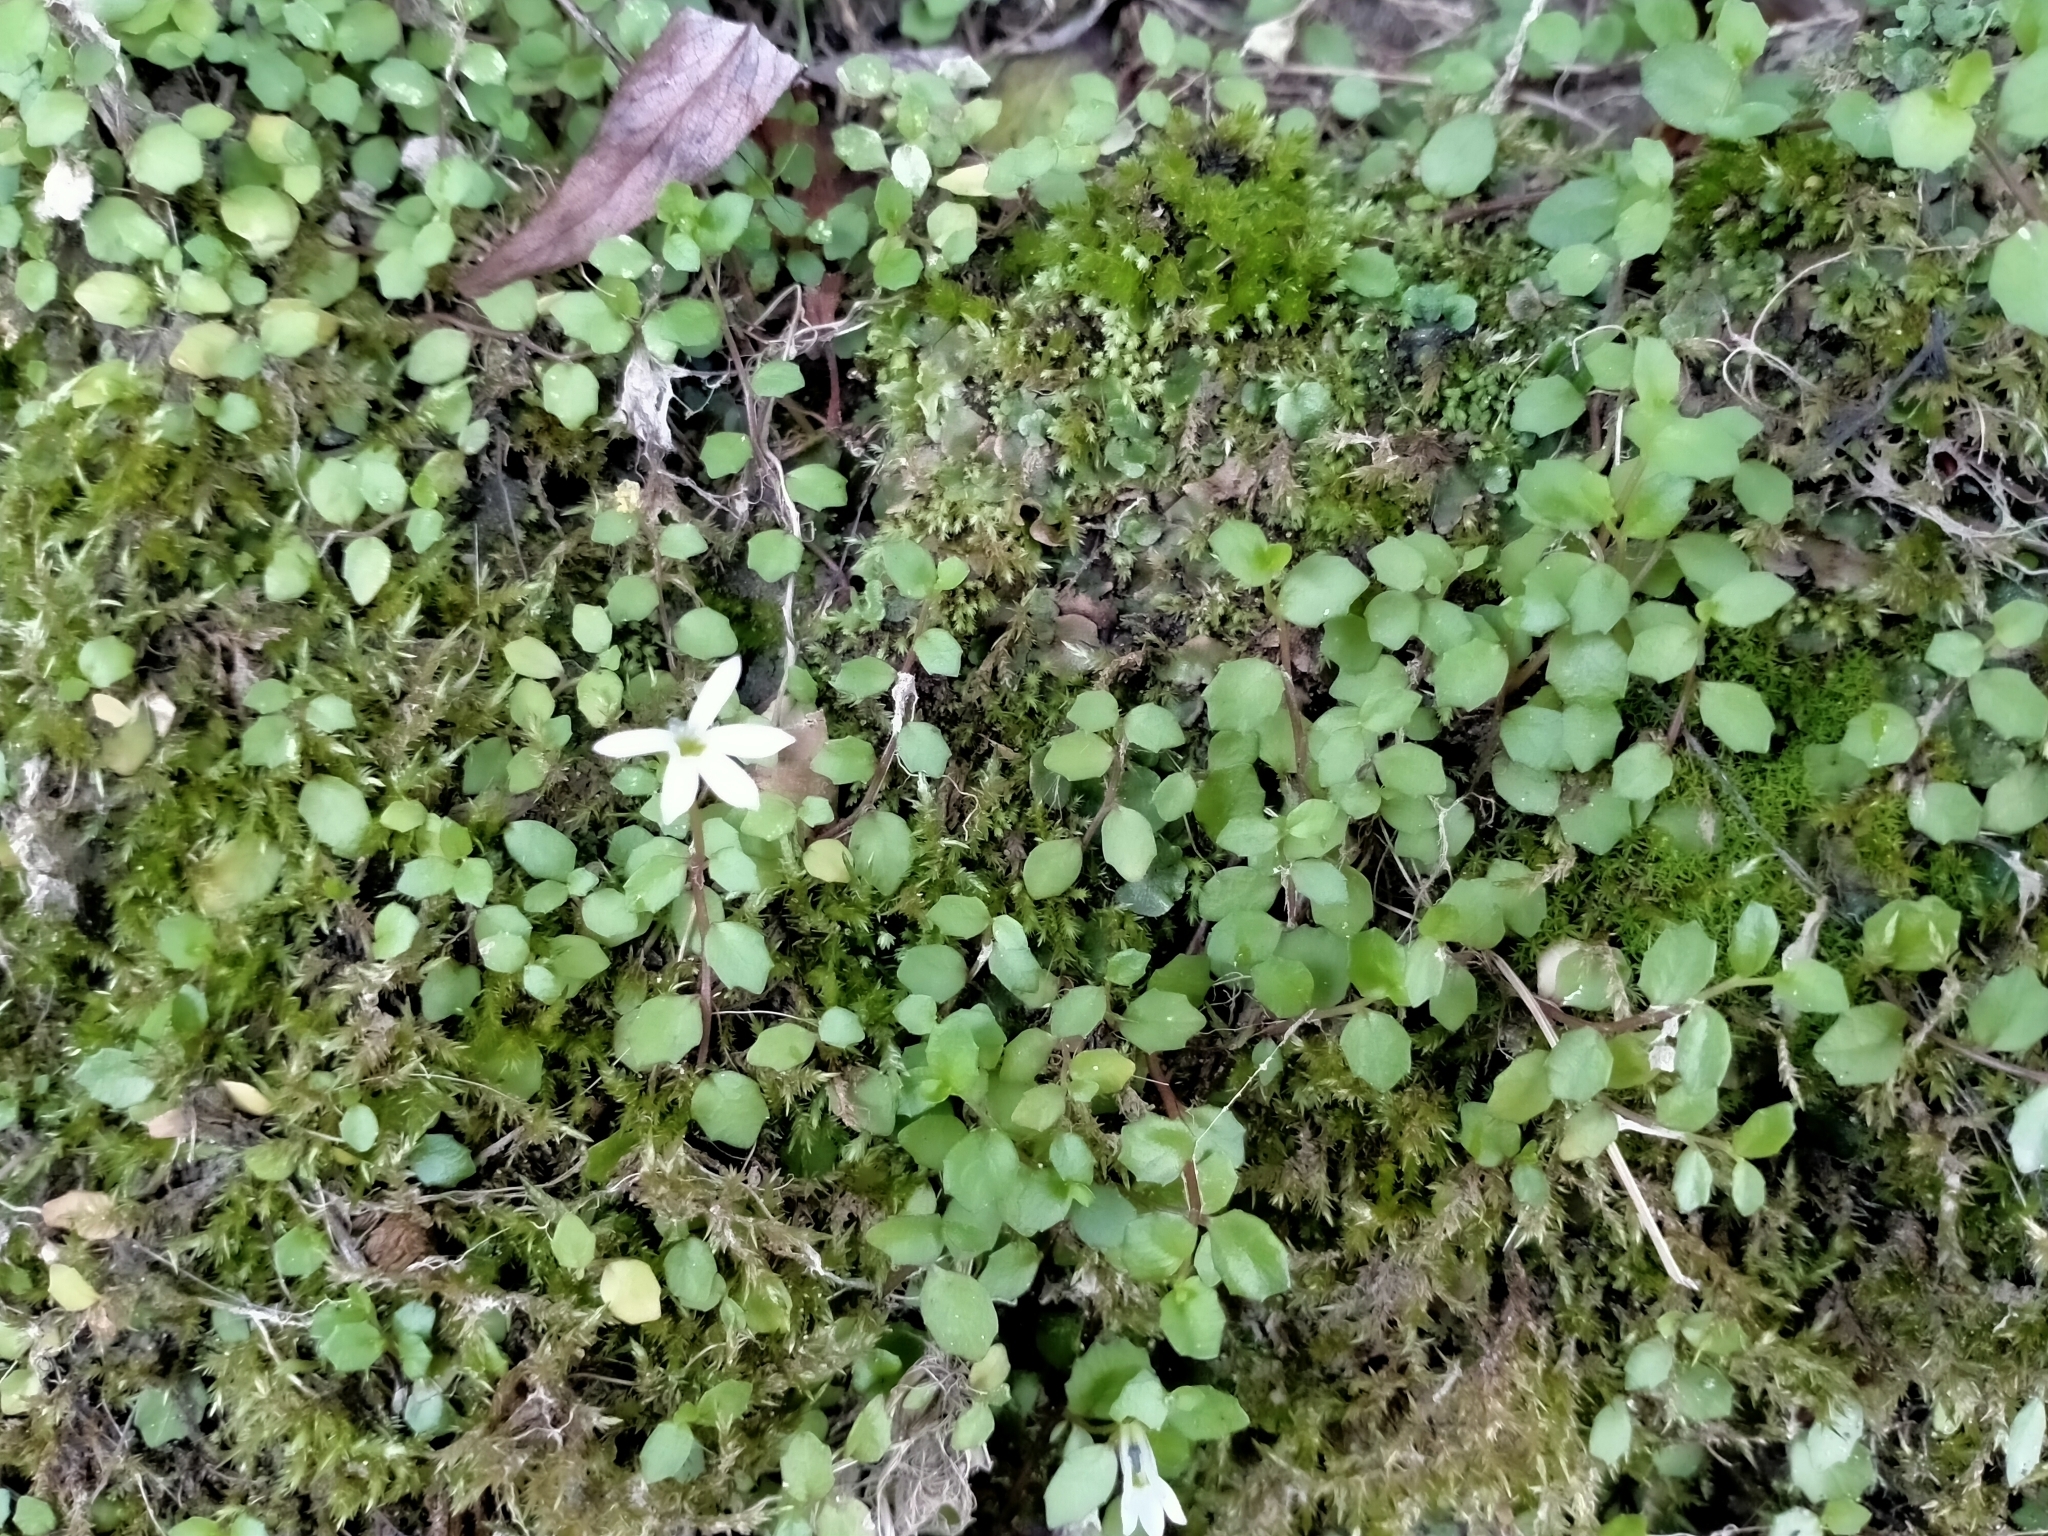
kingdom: Plantae
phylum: Tracheophyta
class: Magnoliopsida
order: Asterales
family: Campanulaceae
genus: Lobelia
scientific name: Lobelia angulata
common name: Lawn lobelia
